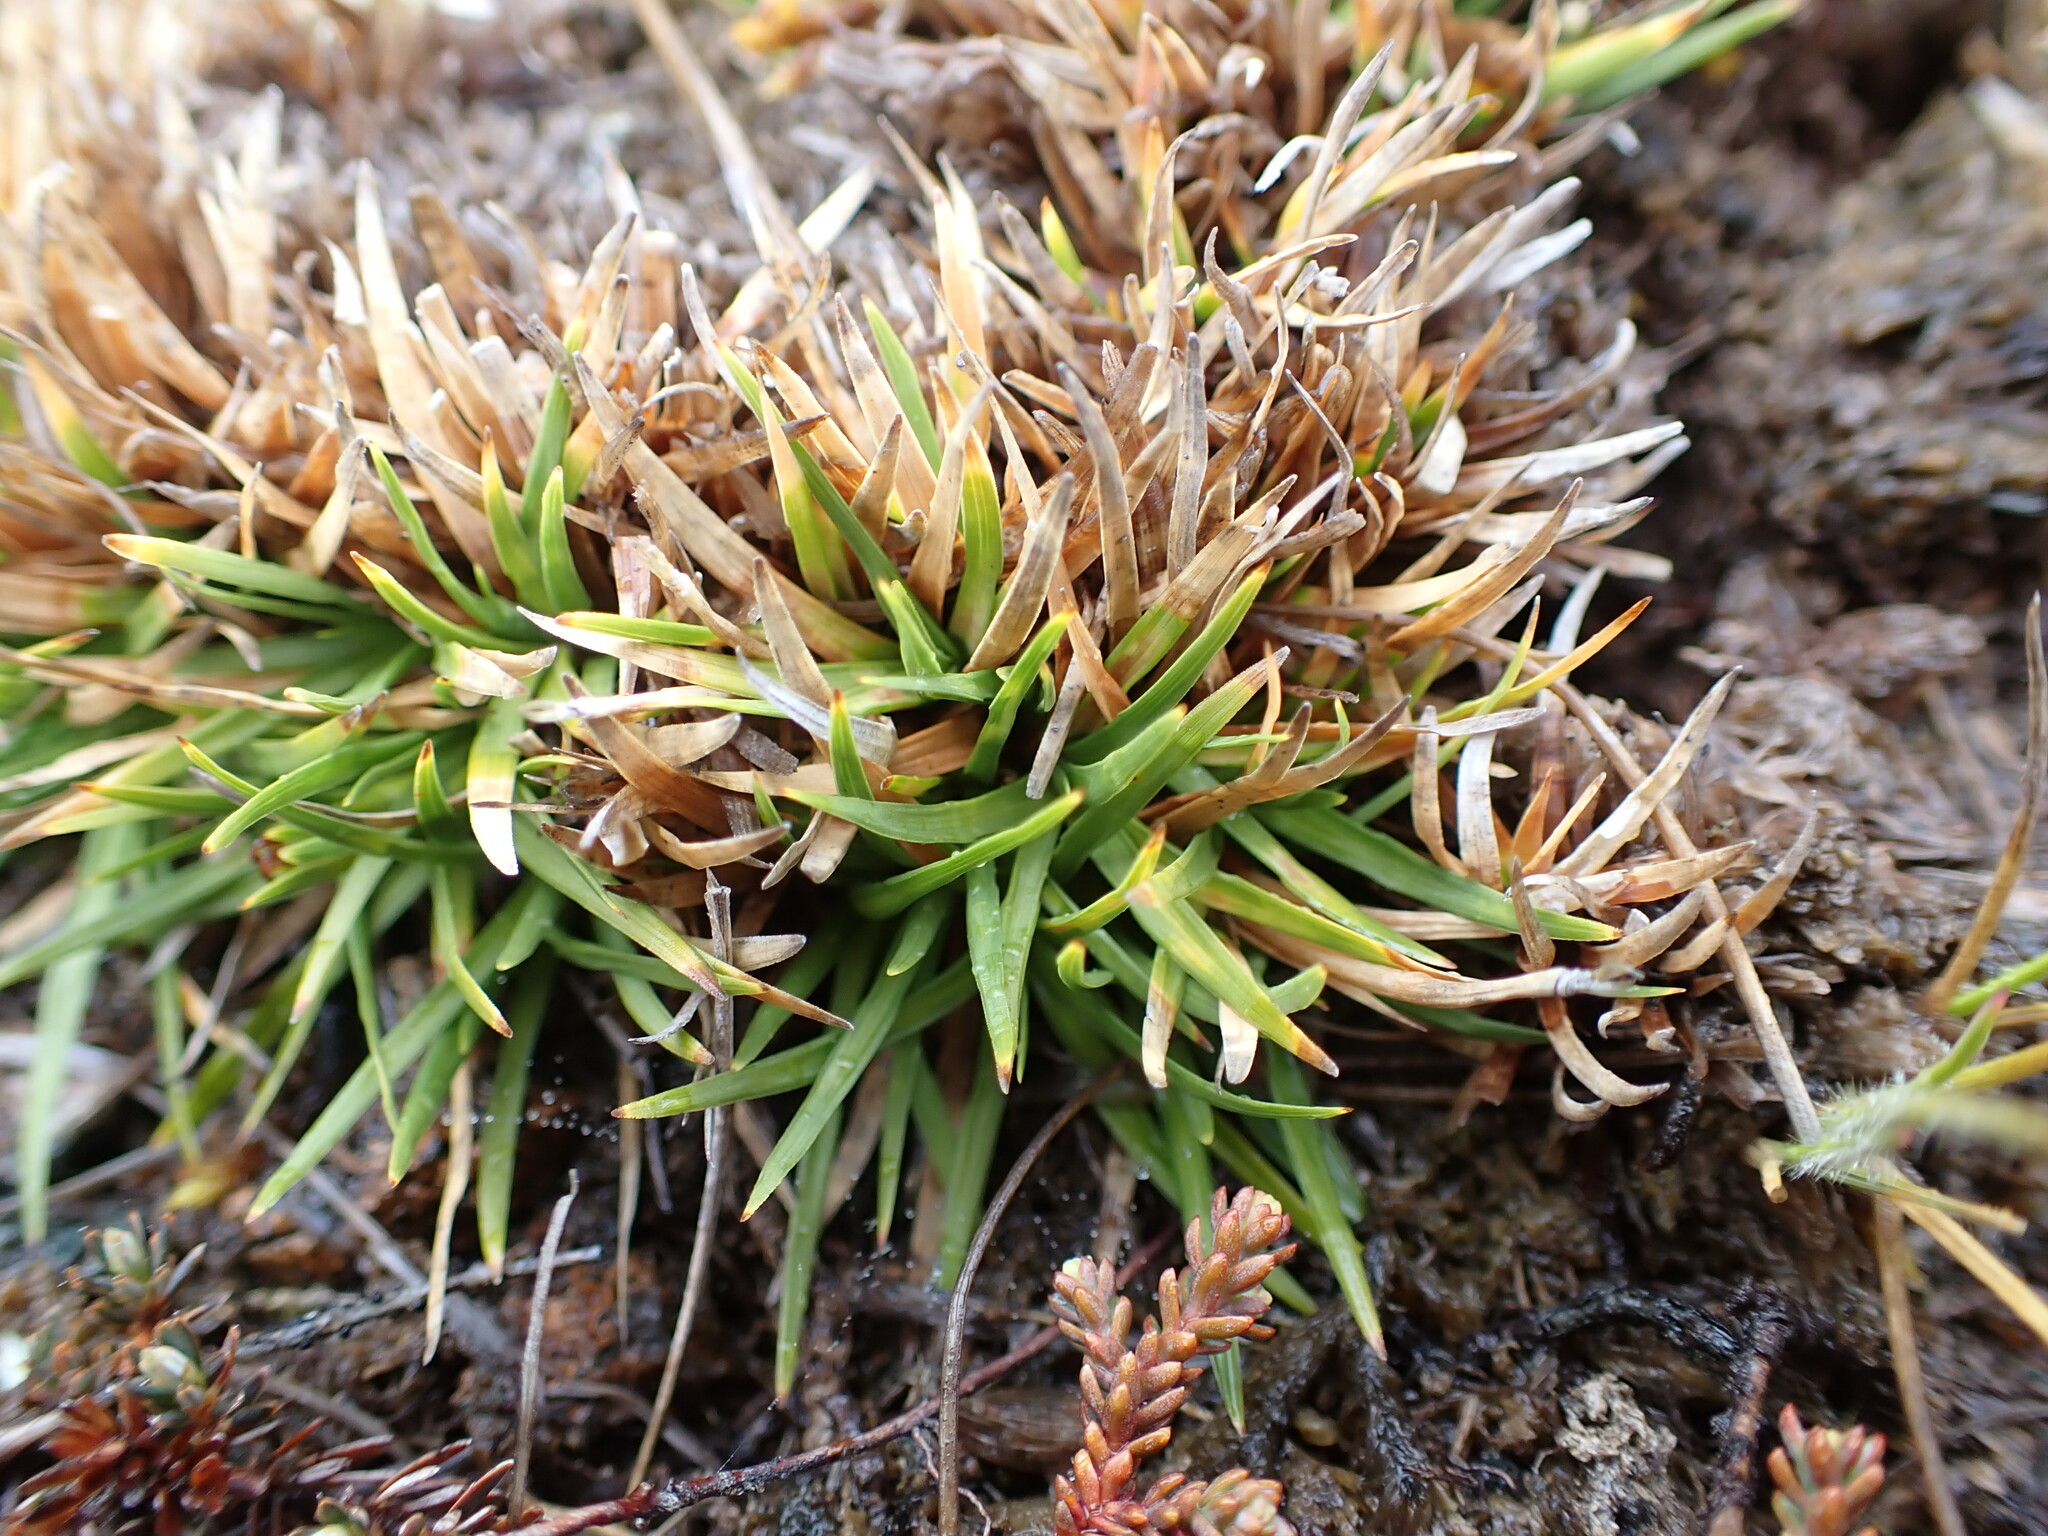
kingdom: Plantae
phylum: Tracheophyta
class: Liliopsida
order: Poales
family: Cyperaceae
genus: Oreobolus
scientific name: Oreobolus impar
